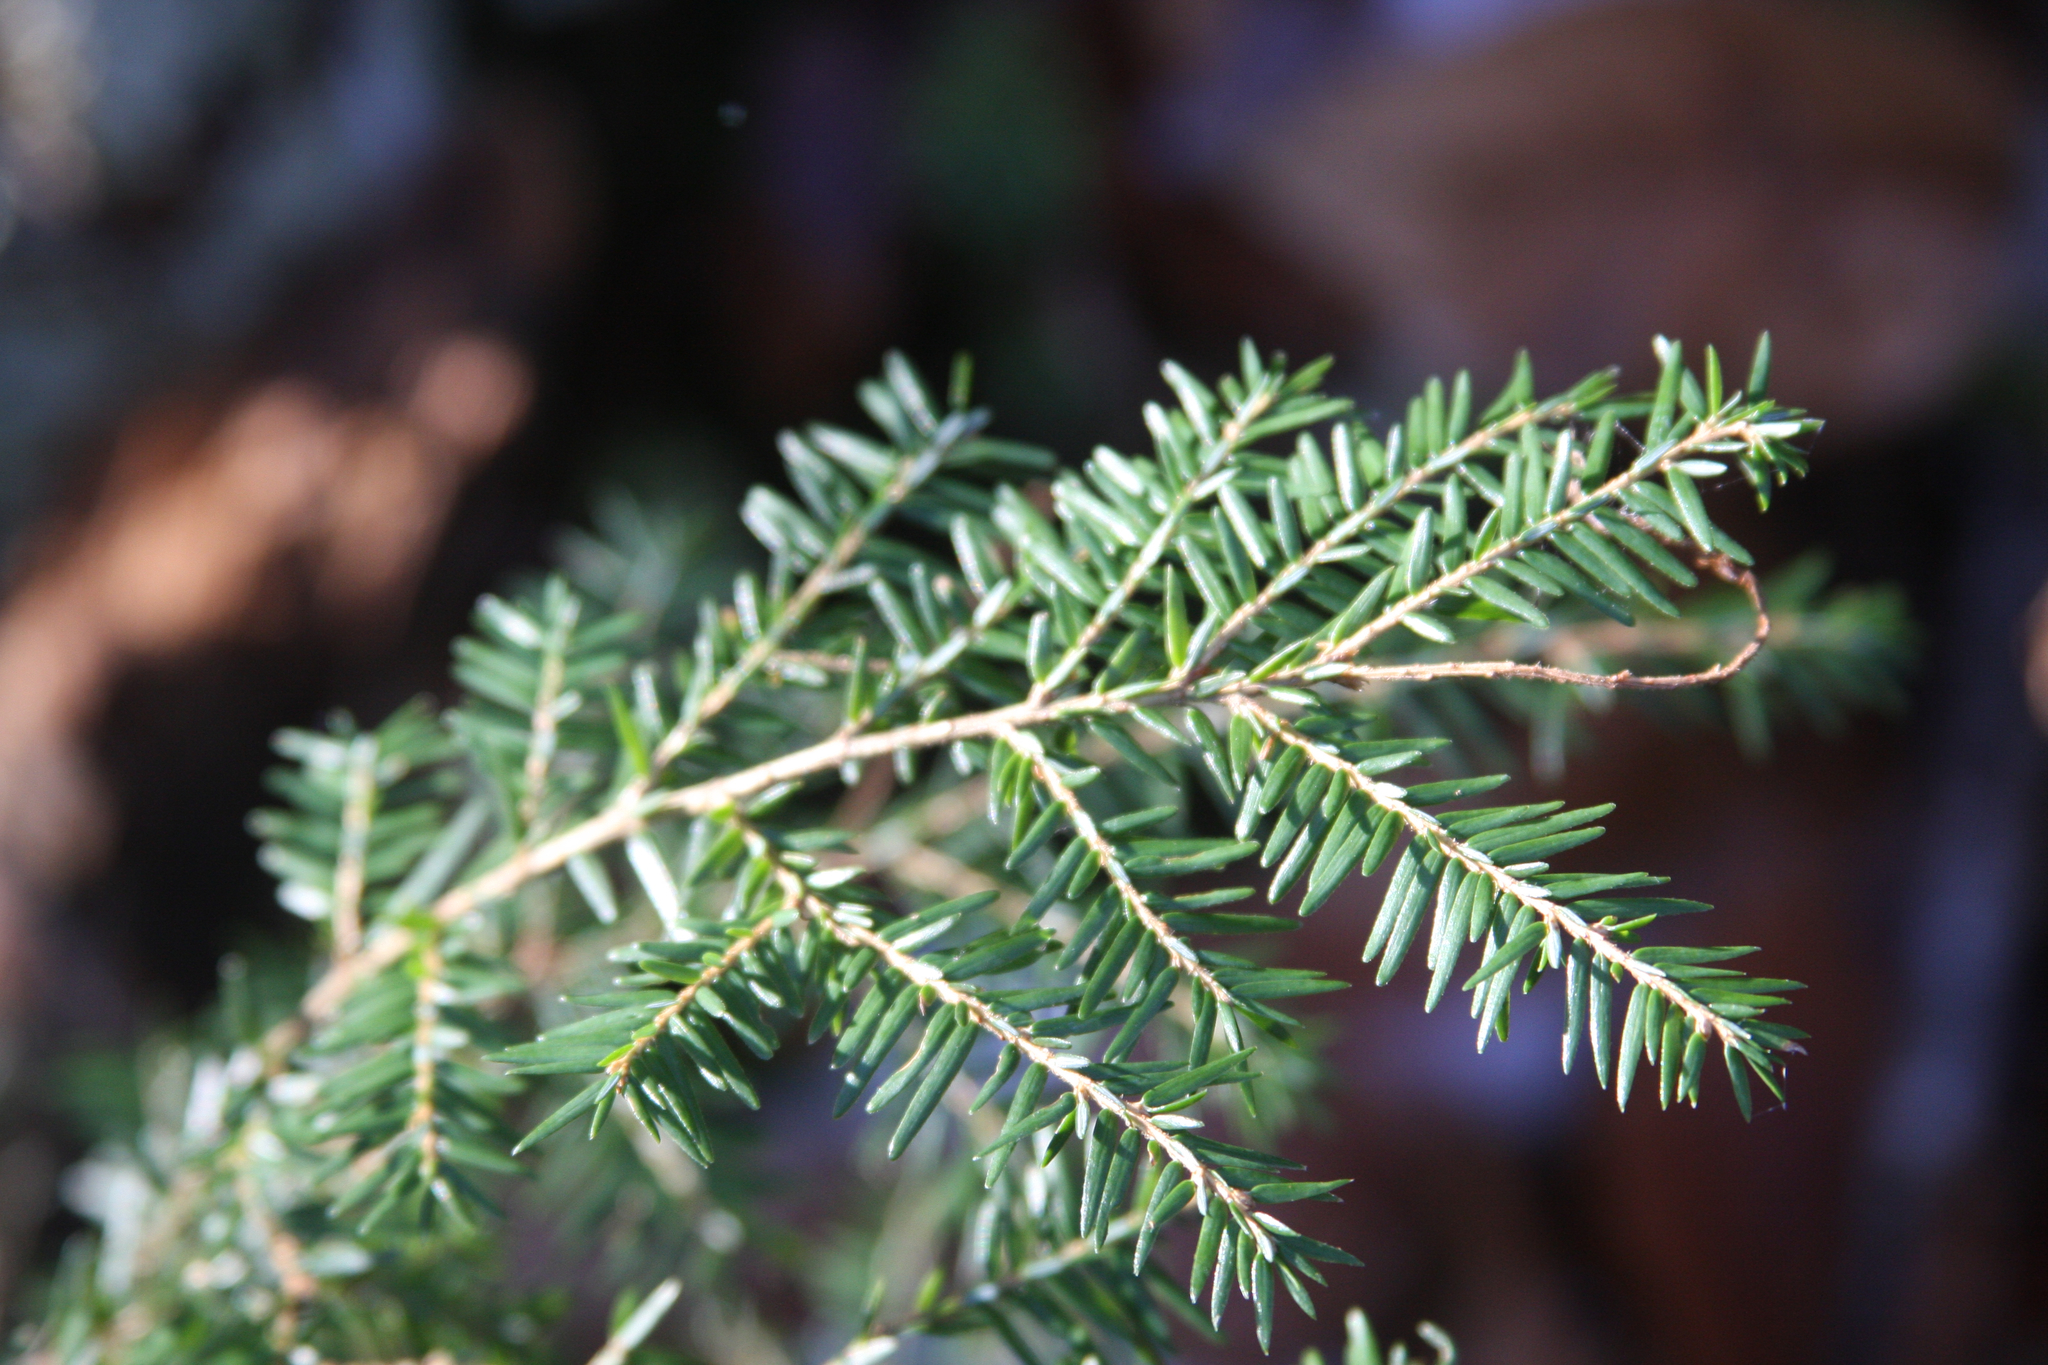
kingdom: Plantae
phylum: Tracheophyta
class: Pinopsida
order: Pinales
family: Pinaceae
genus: Tsuga
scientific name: Tsuga canadensis
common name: Eastern hemlock
